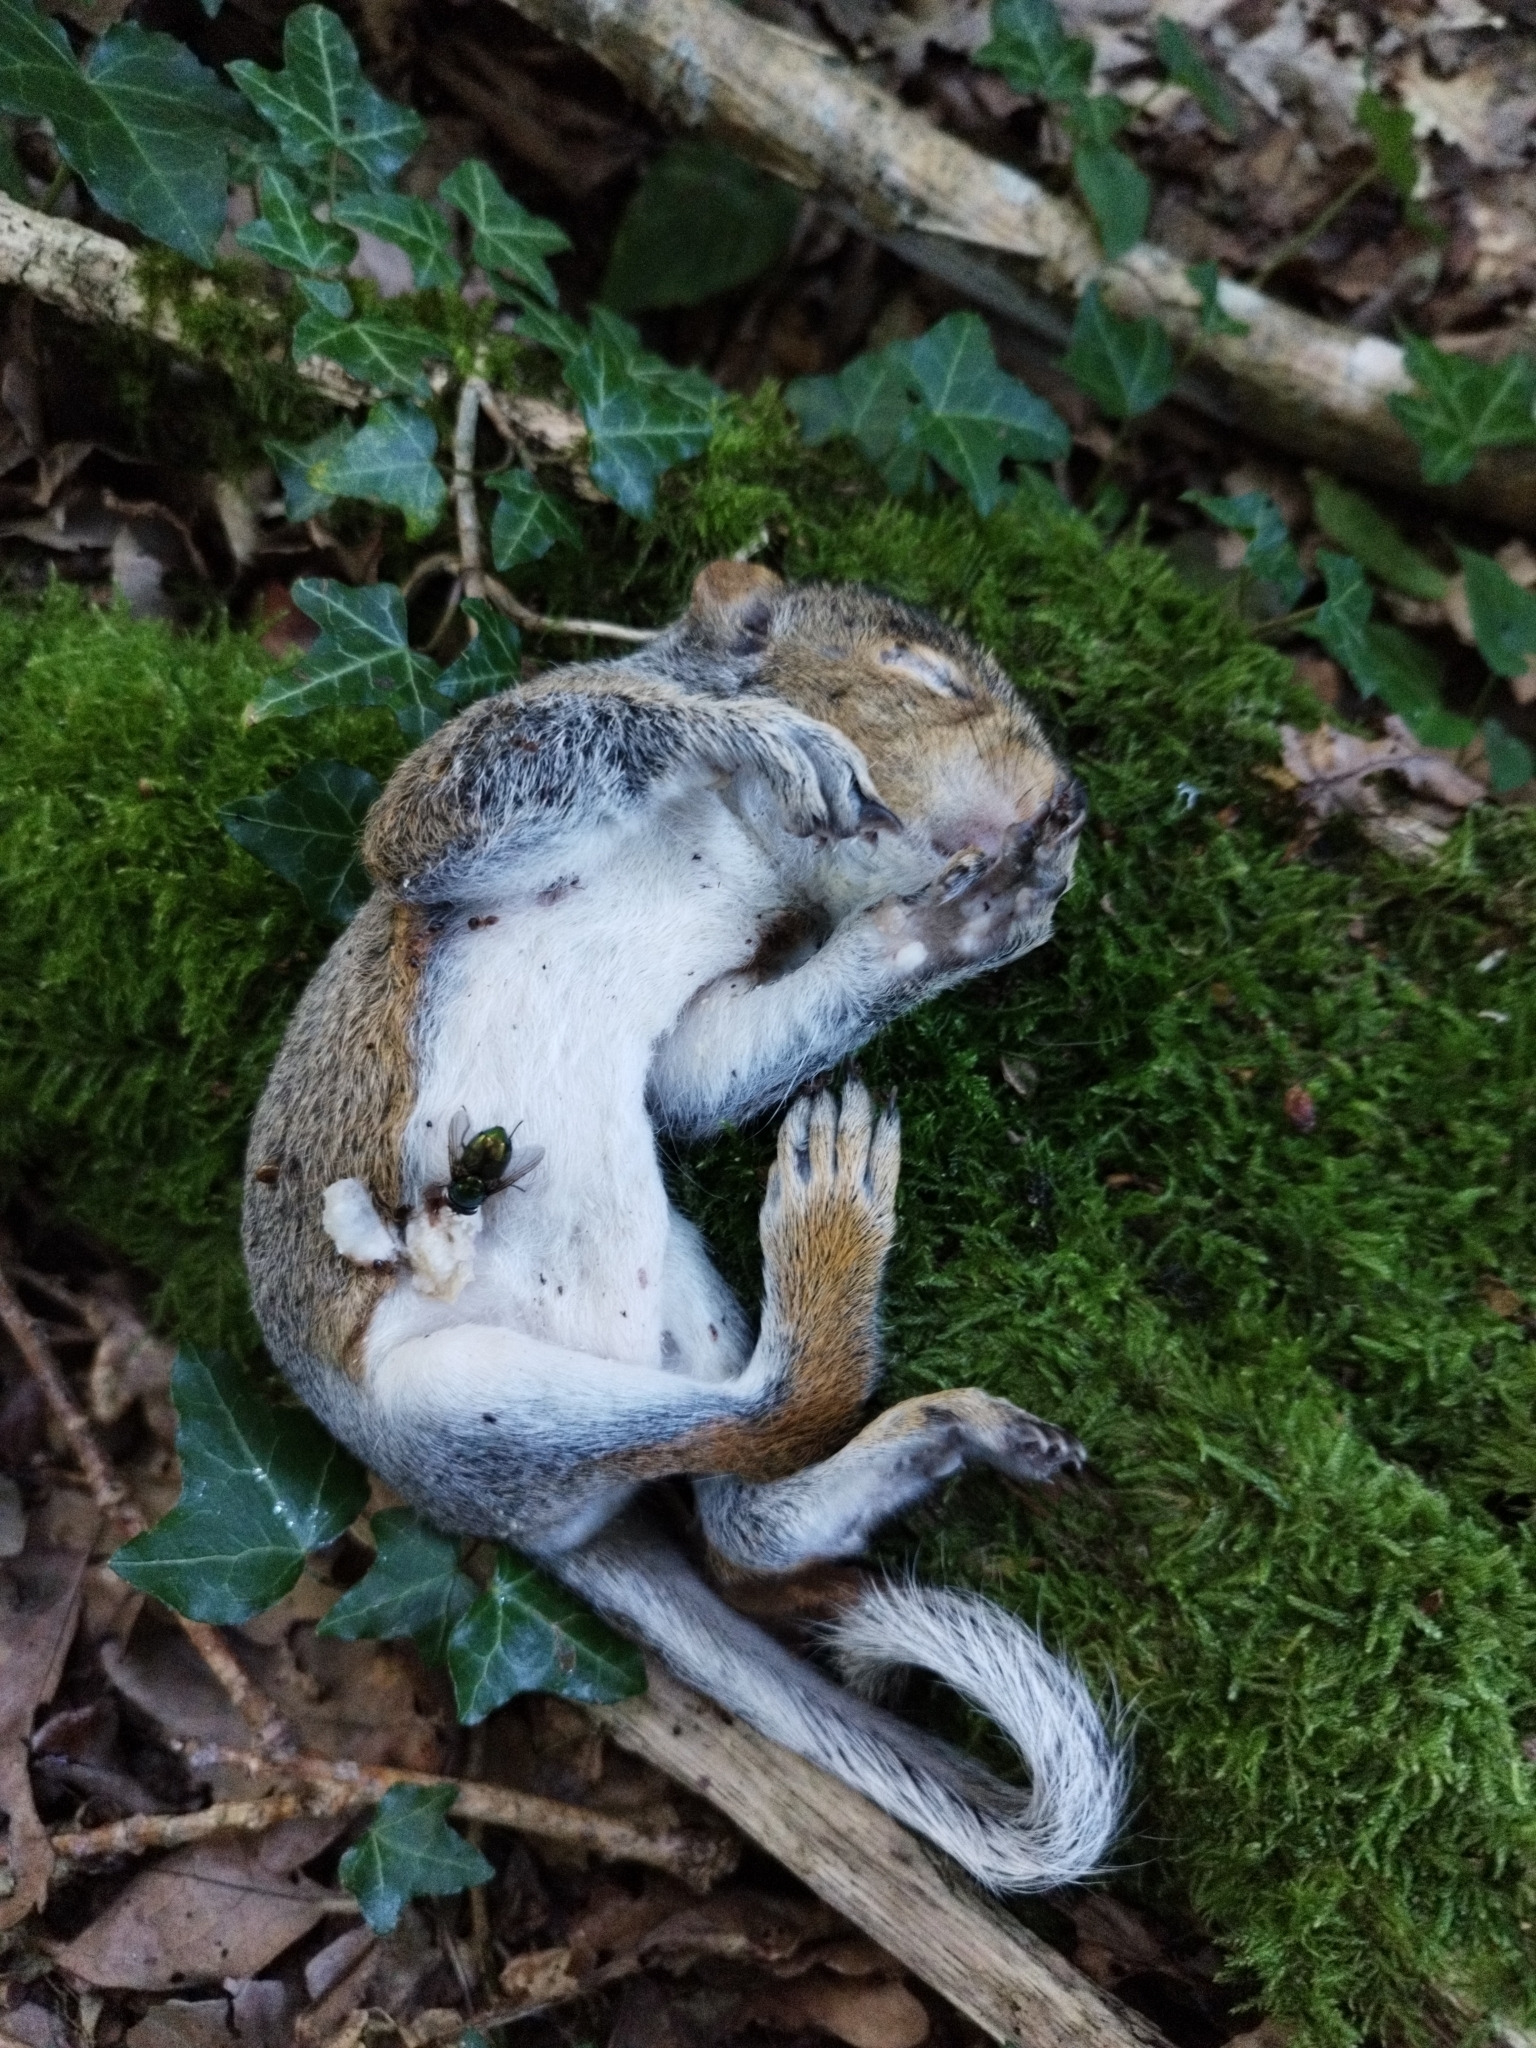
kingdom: Animalia
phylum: Chordata
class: Mammalia
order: Rodentia
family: Sciuridae
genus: Sciurus
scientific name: Sciurus carolinensis
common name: Eastern gray squirrel
